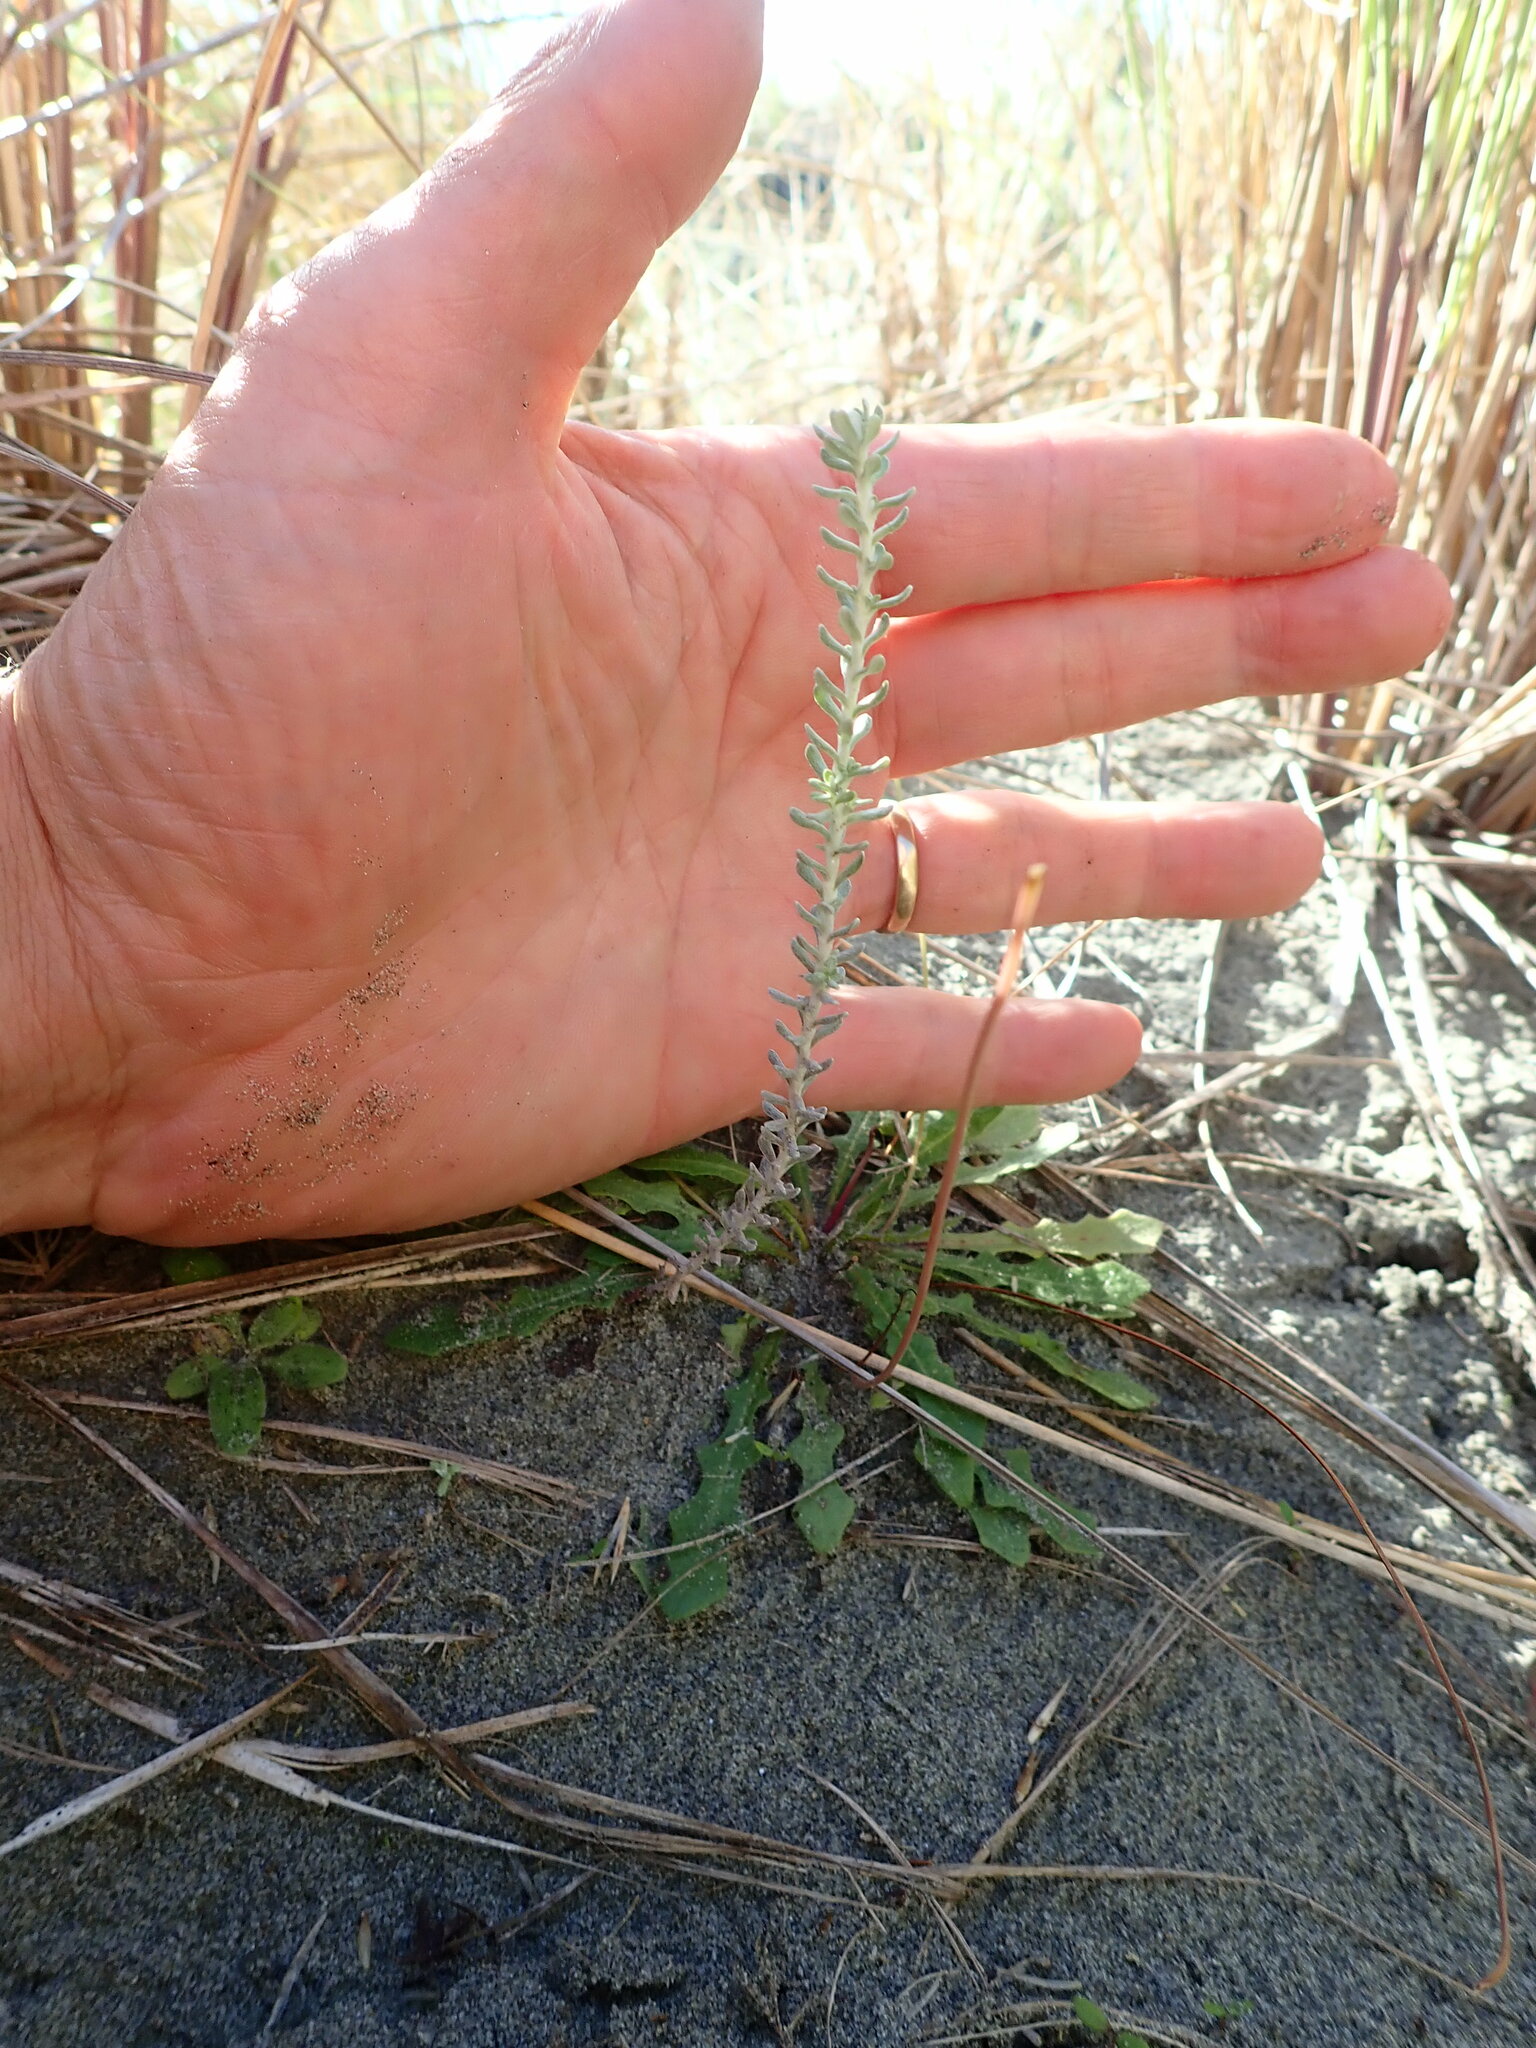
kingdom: Plantae
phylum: Tracheophyta
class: Magnoliopsida
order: Asterales
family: Asteraceae
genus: Ozothamnus
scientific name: Ozothamnus leptophyllus
